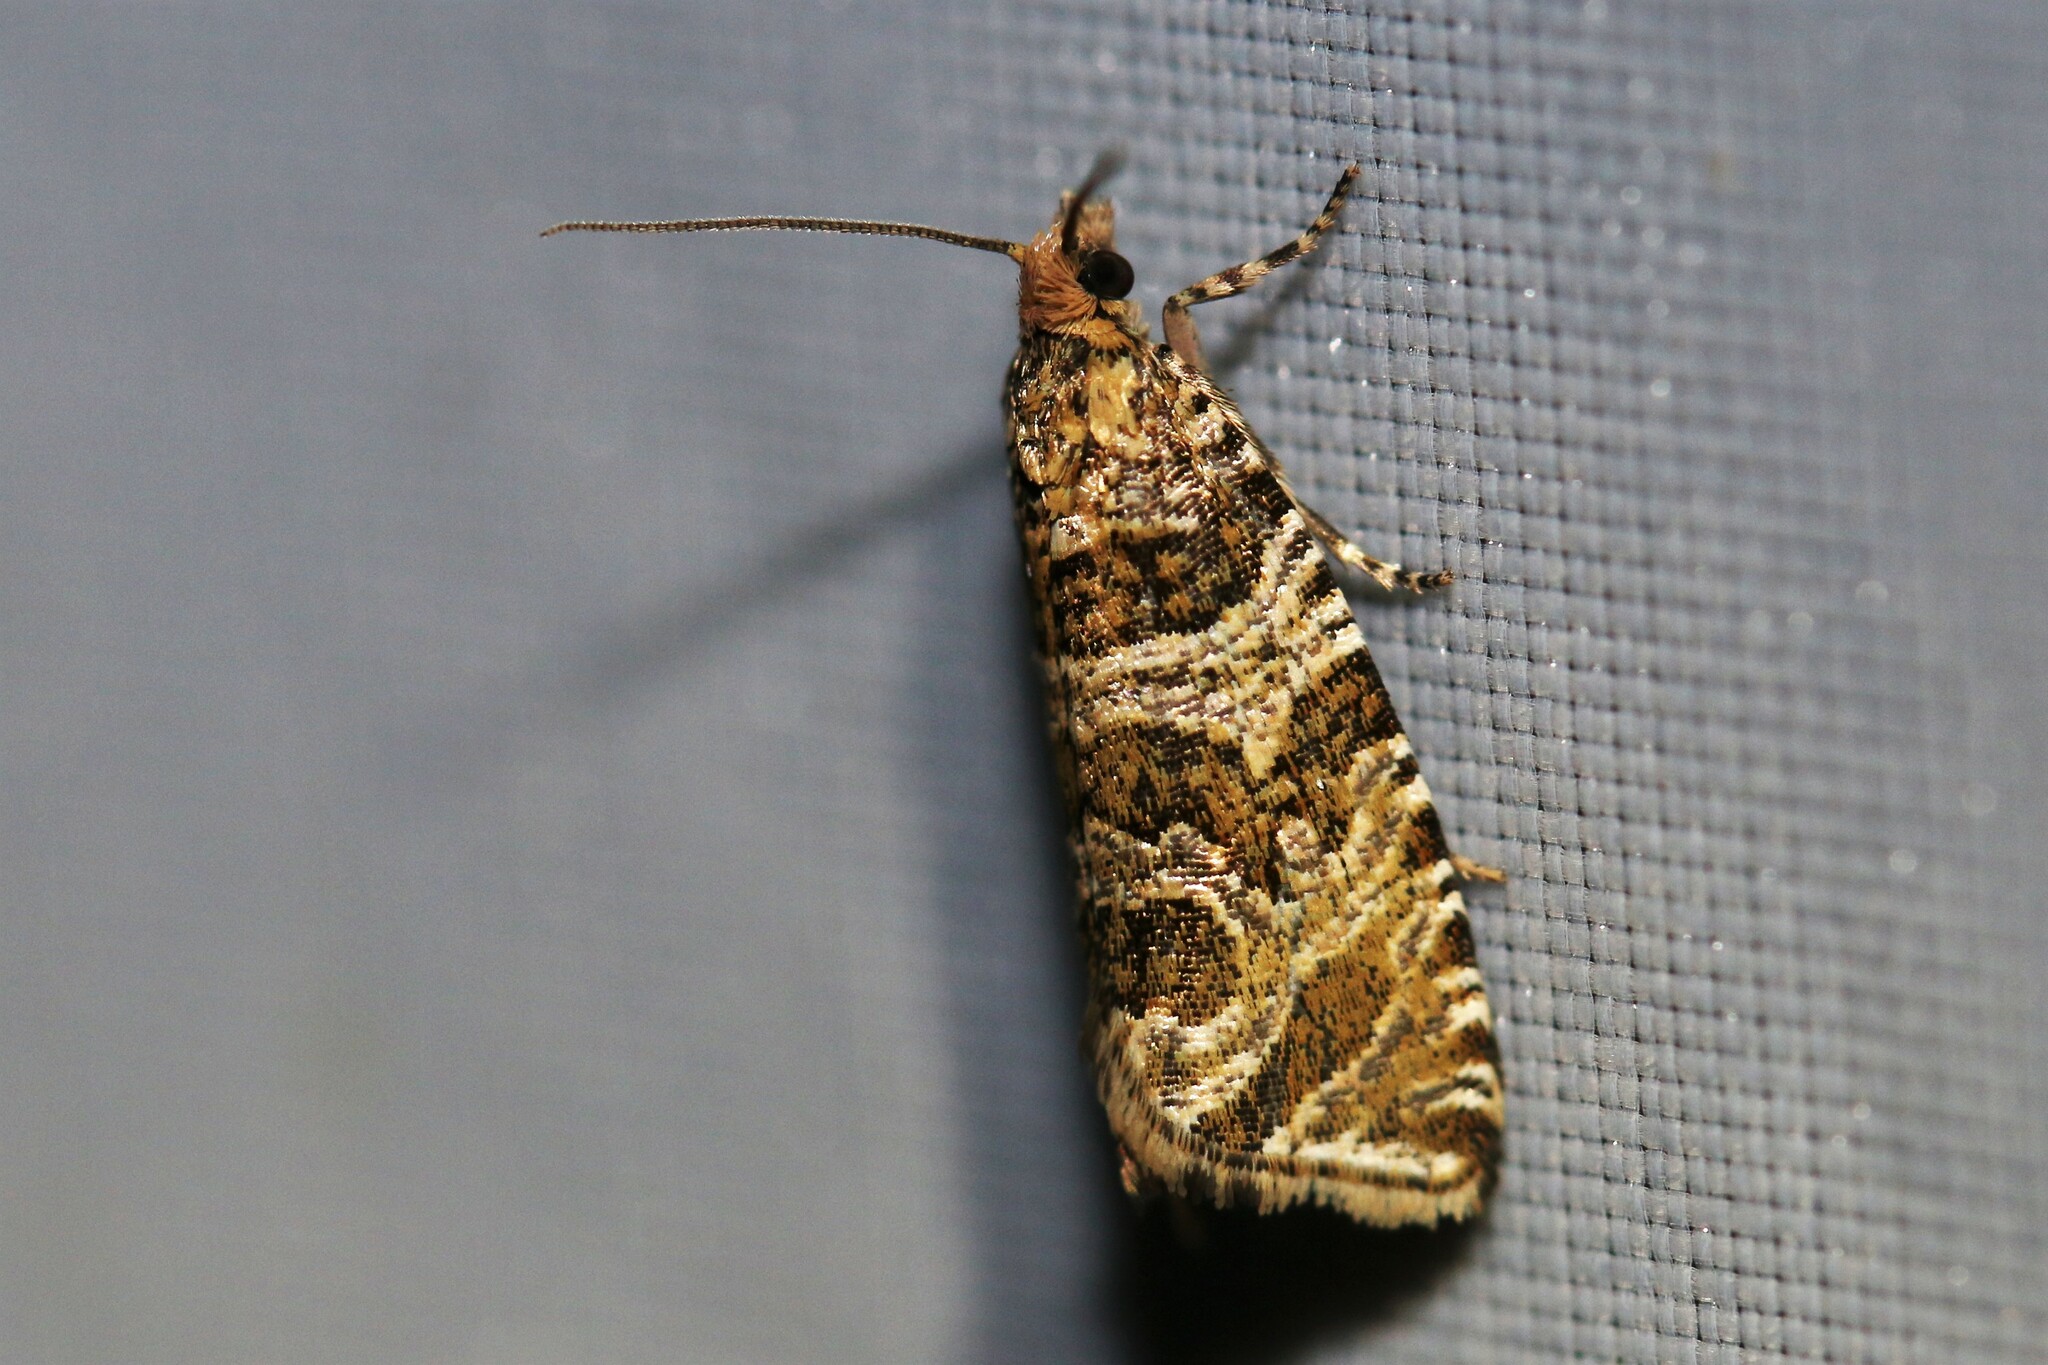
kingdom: Animalia
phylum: Arthropoda
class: Insecta
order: Lepidoptera
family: Tortricidae
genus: Syricoris
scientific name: Syricoris rivulana
